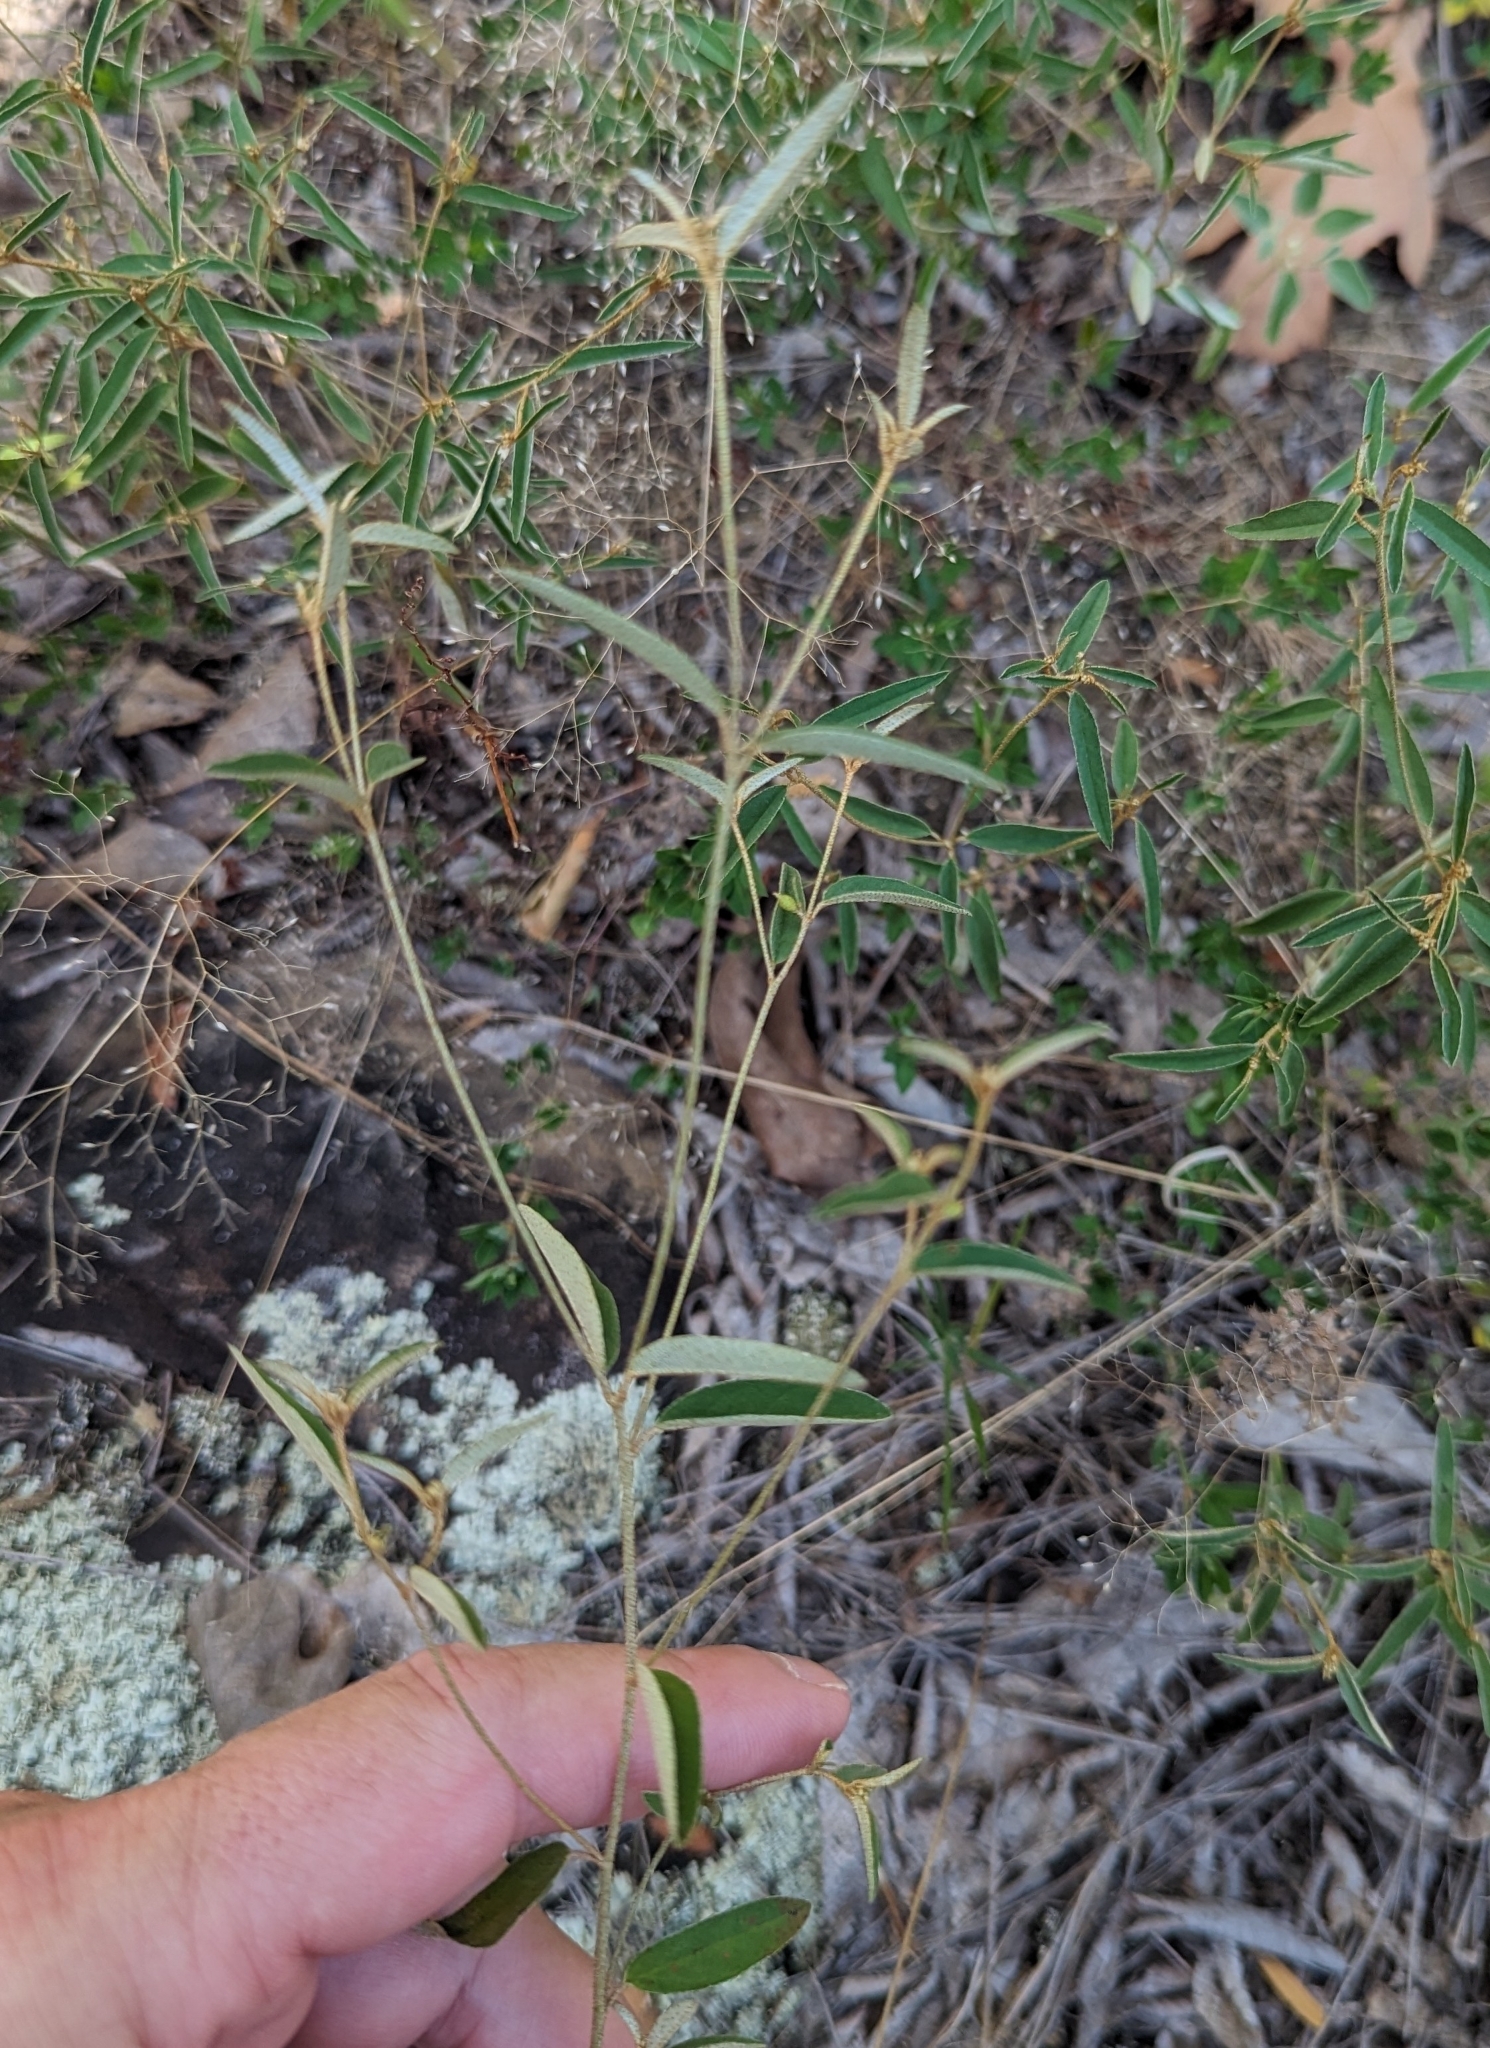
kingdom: Plantae
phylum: Tracheophyta
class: Magnoliopsida
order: Malpighiales
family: Euphorbiaceae
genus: Croton
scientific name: Croton michauxii
